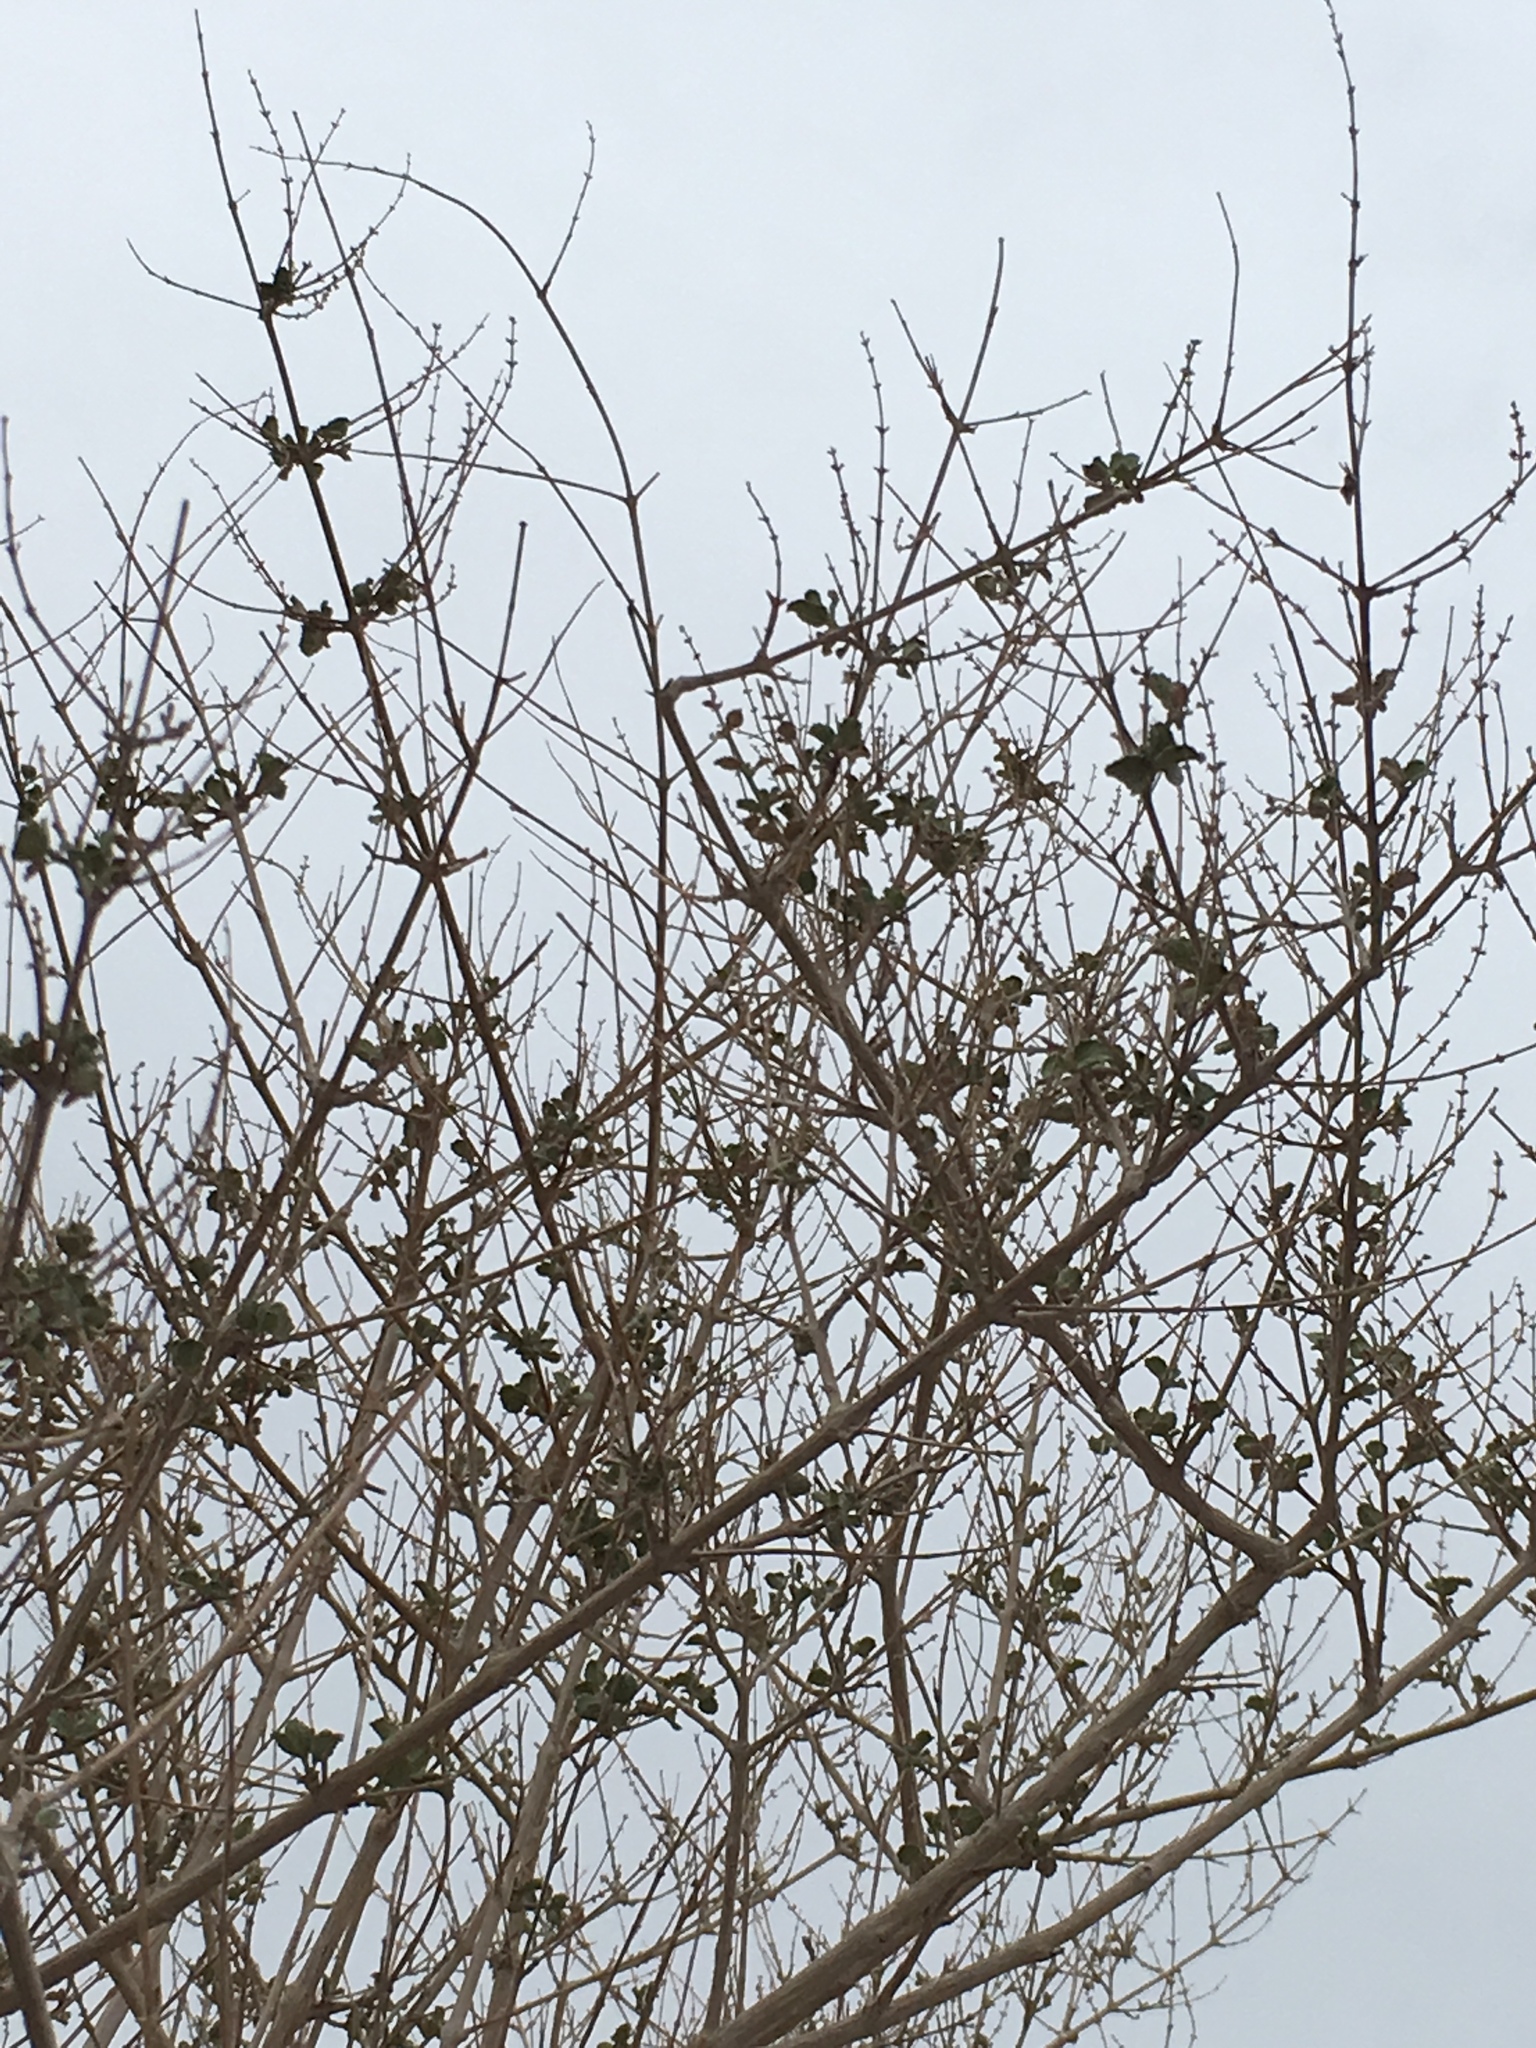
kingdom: Plantae
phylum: Tracheophyta
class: Magnoliopsida
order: Lamiales
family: Lamiaceae
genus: Condea
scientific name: Condea emoryi
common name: Chia
